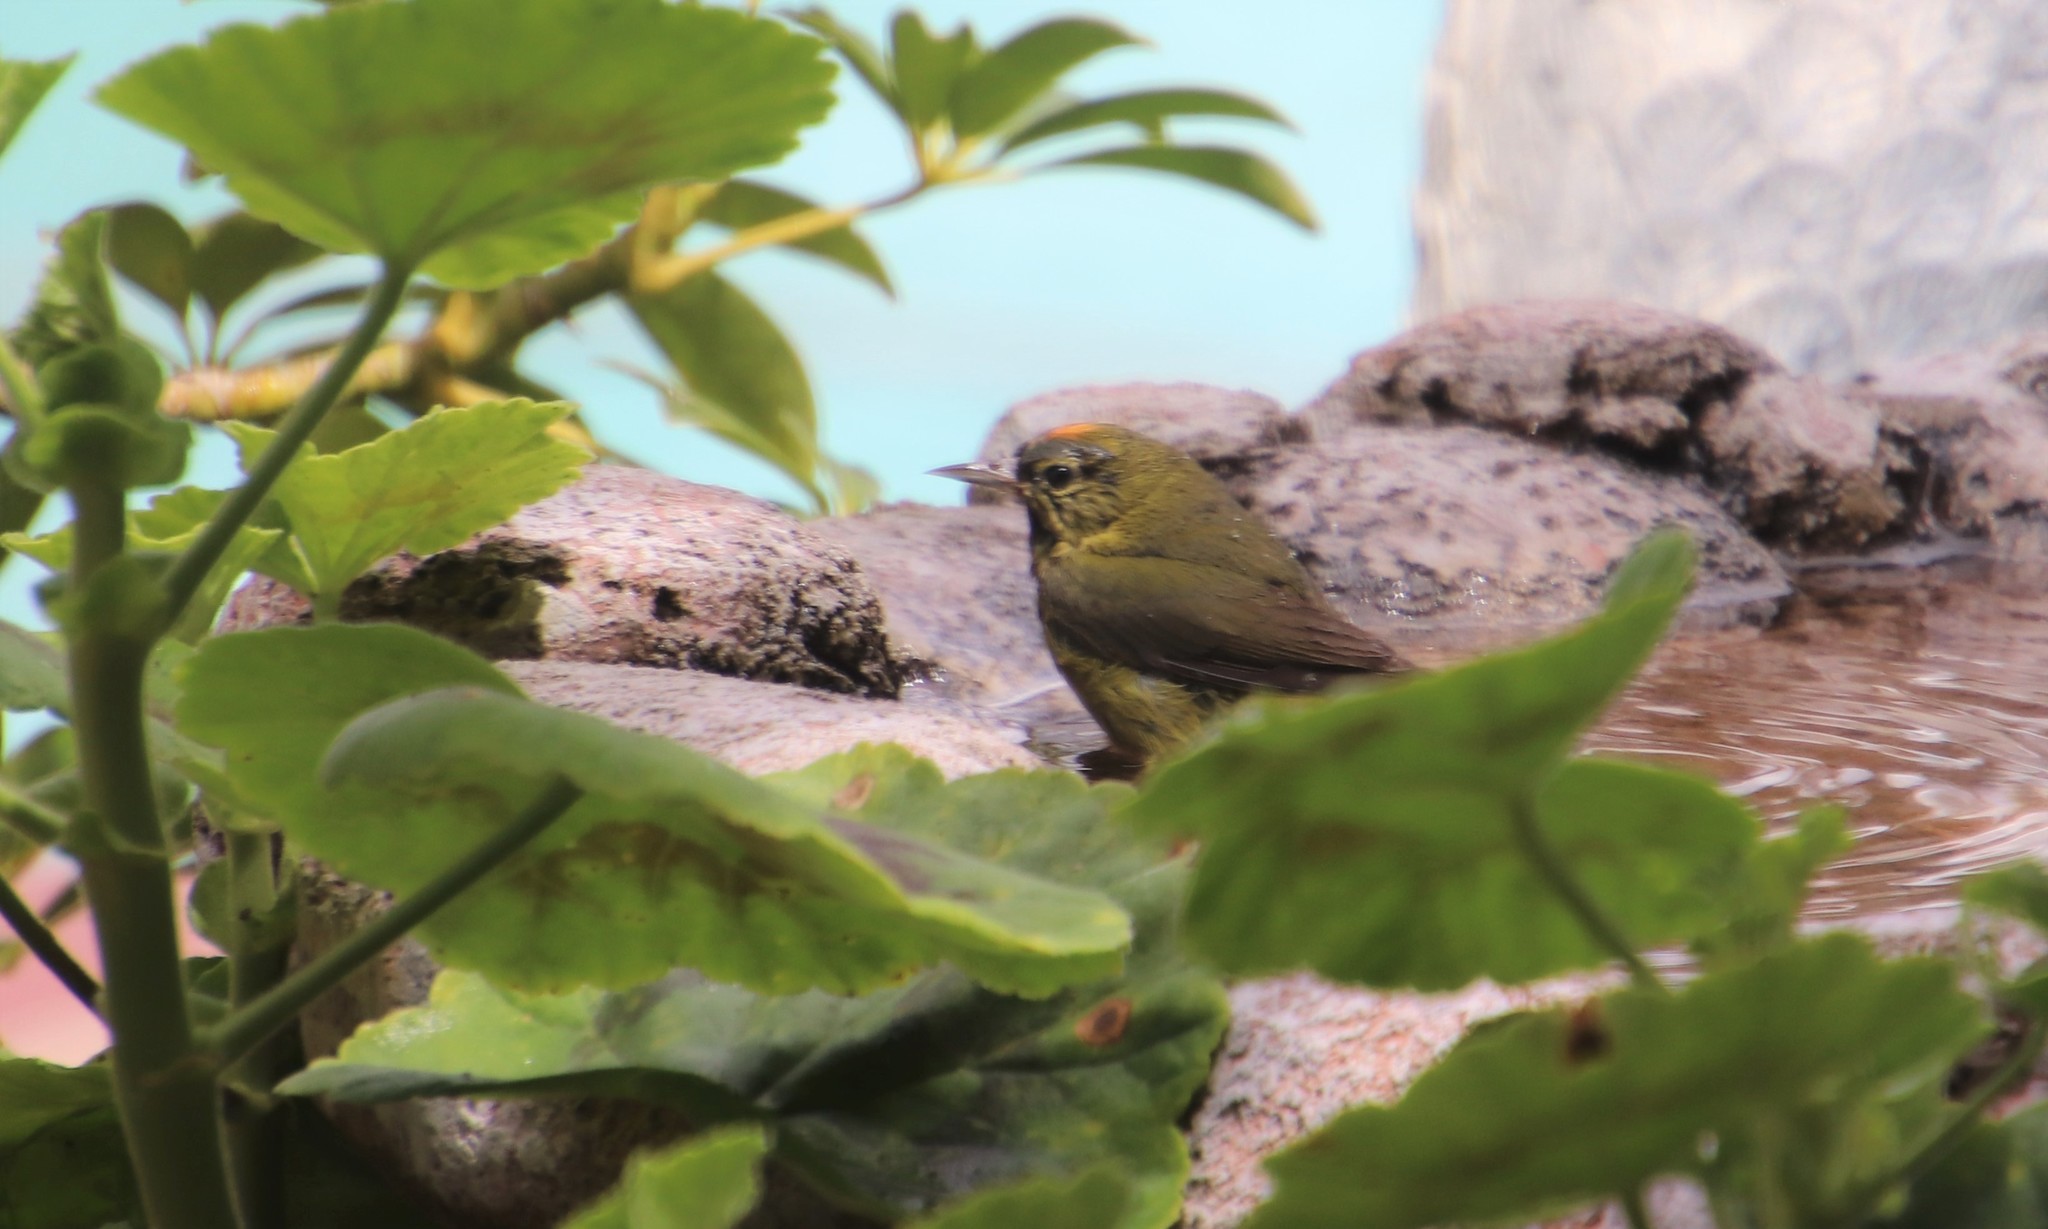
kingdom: Animalia
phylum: Chordata
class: Aves
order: Passeriformes
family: Parulidae
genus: Leiothlypis
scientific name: Leiothlypis celata
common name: Orange-crowned warbler
